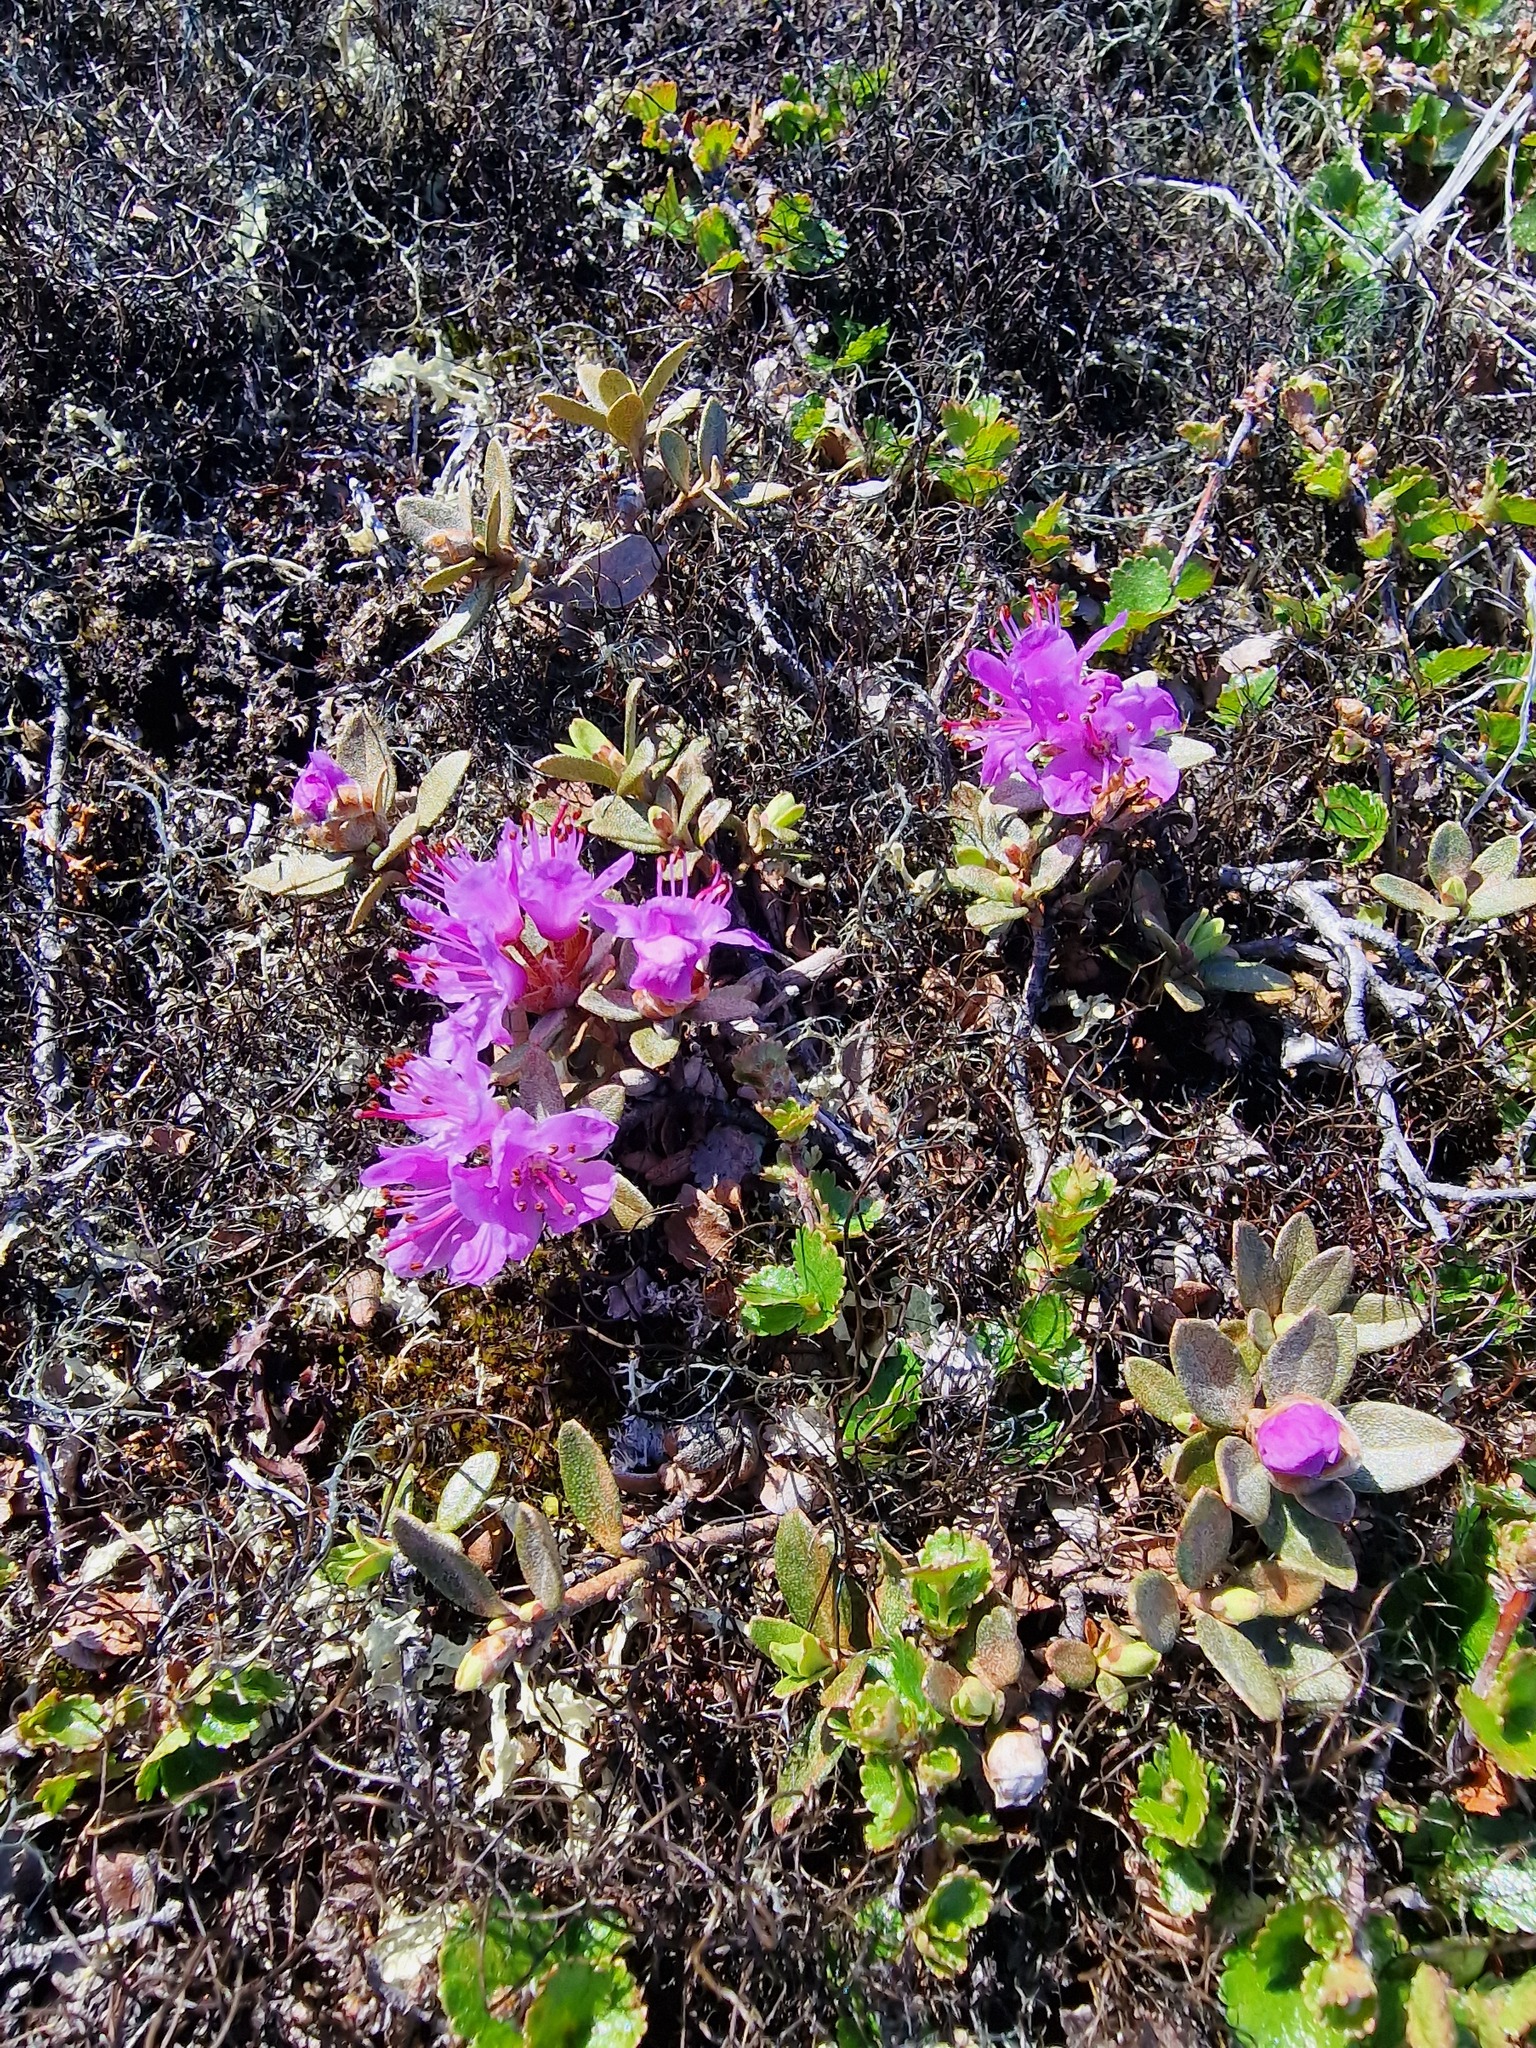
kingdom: Plantae
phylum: Tracheophyta
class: Magnoliopsida
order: Ericales
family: Ericaceae
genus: Rhododendron
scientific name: Rhododendron lapponicum
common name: Lapland rhododendron
